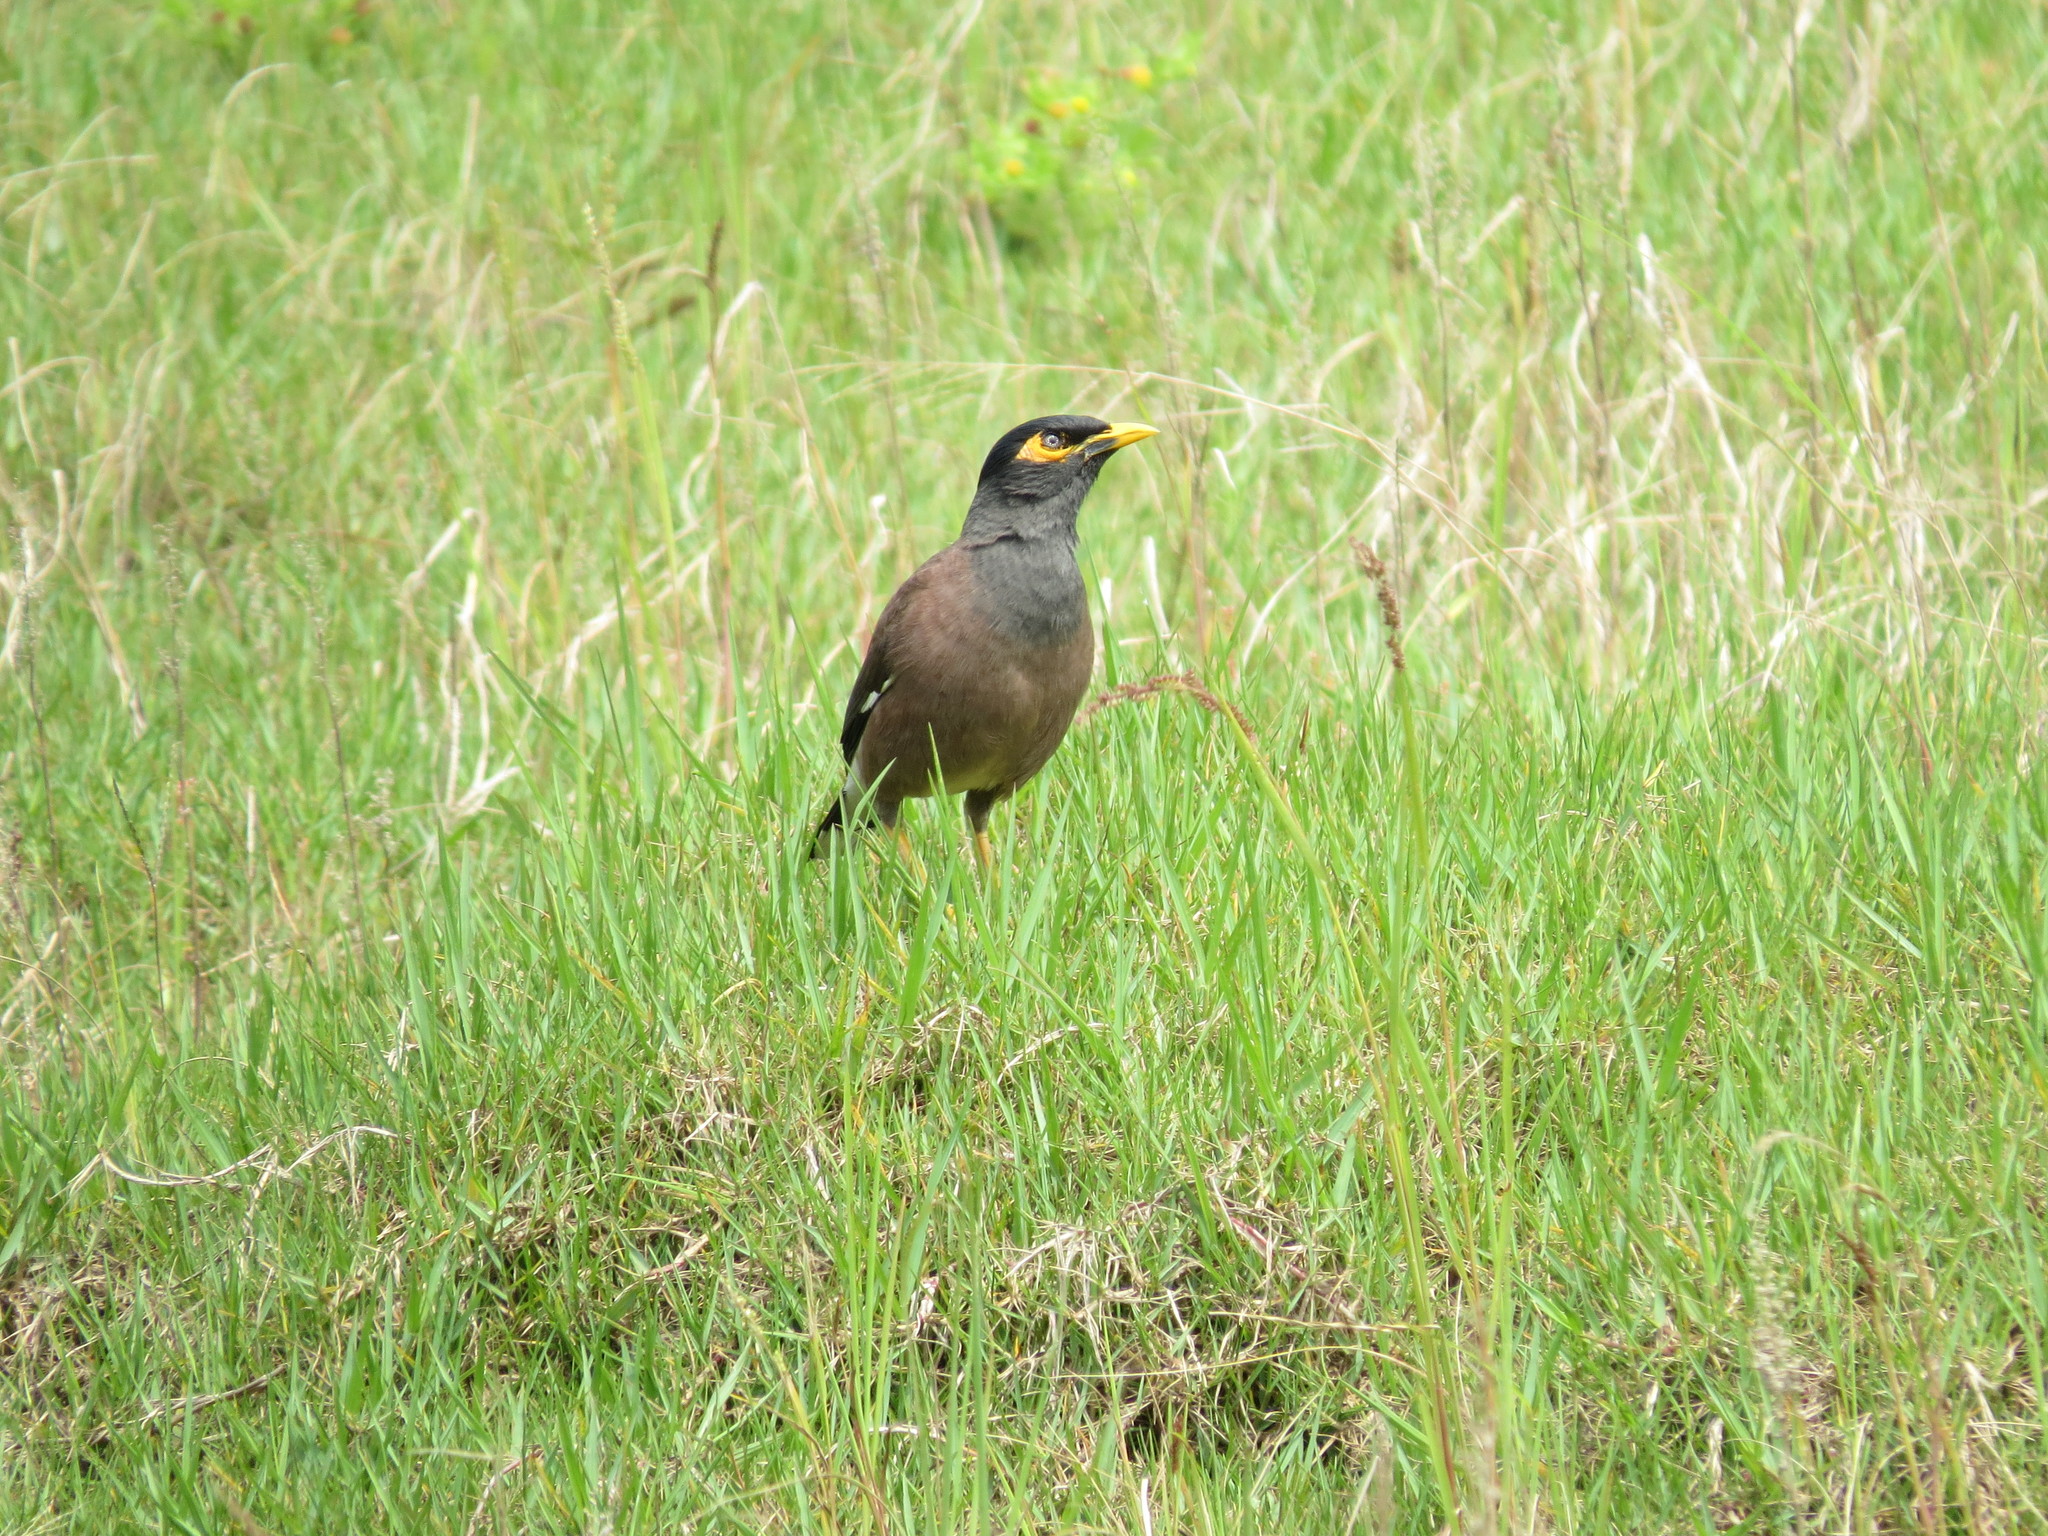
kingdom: Animalia
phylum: Chordata
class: Aves
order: Passeriformes
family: Sturnidae
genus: Acridotheres
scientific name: Acridotheres tristis
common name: Common myna
